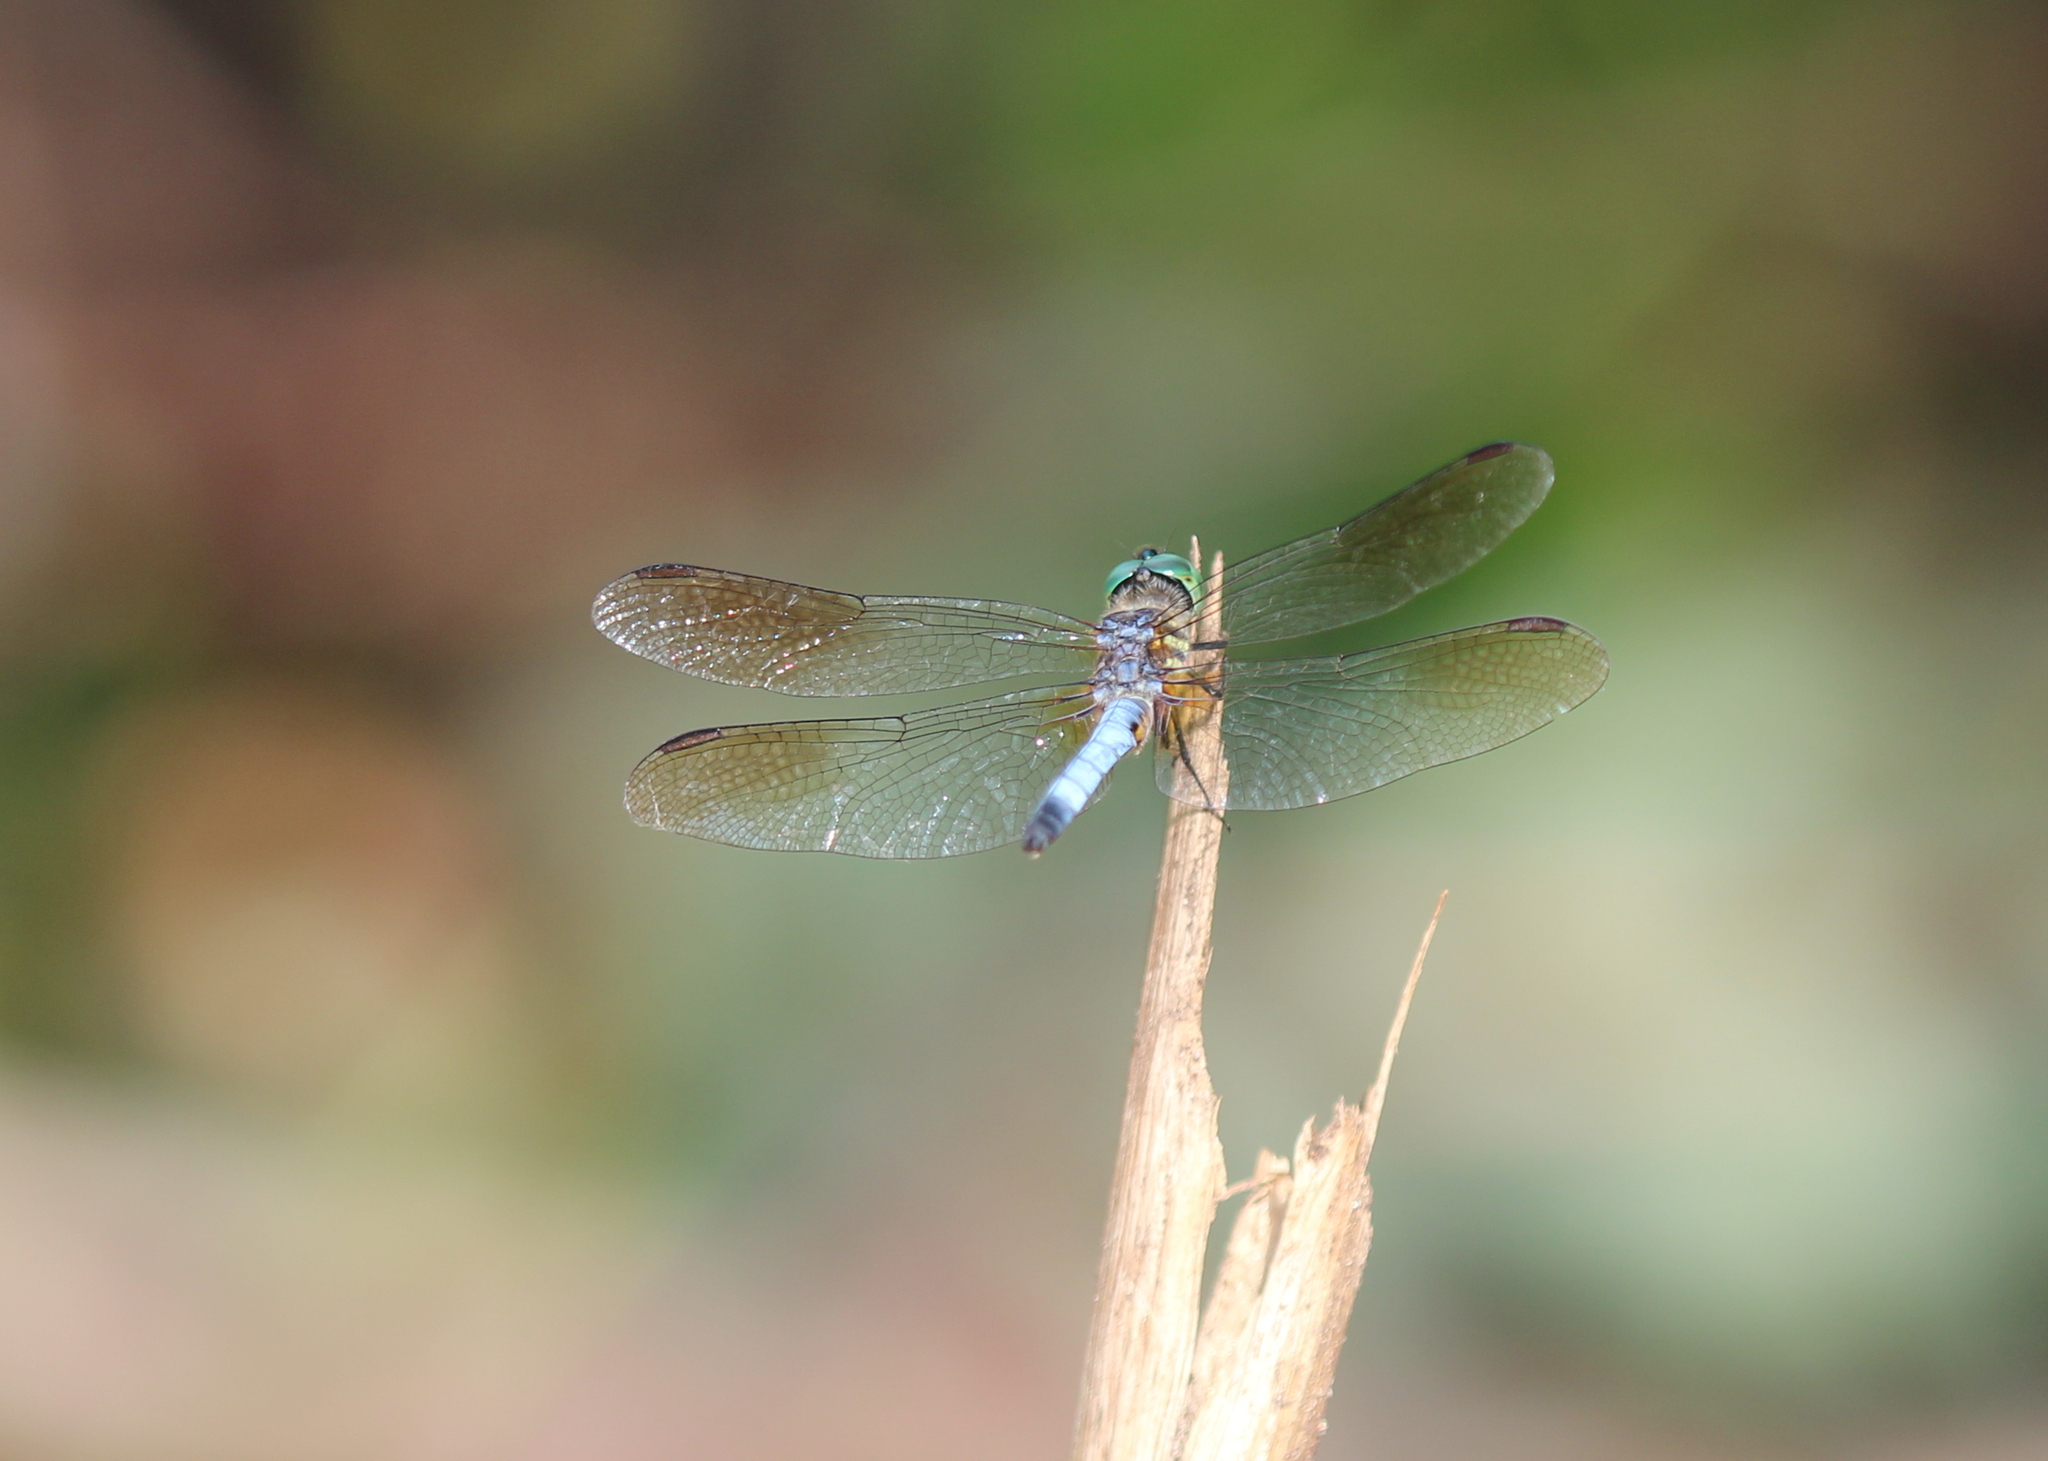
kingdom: Animalia
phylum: Arthropoda
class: Insecta
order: Odonata
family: Libellulidae
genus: Pachydiplax
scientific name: Pachydiplax longipennis
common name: Blue dasher
